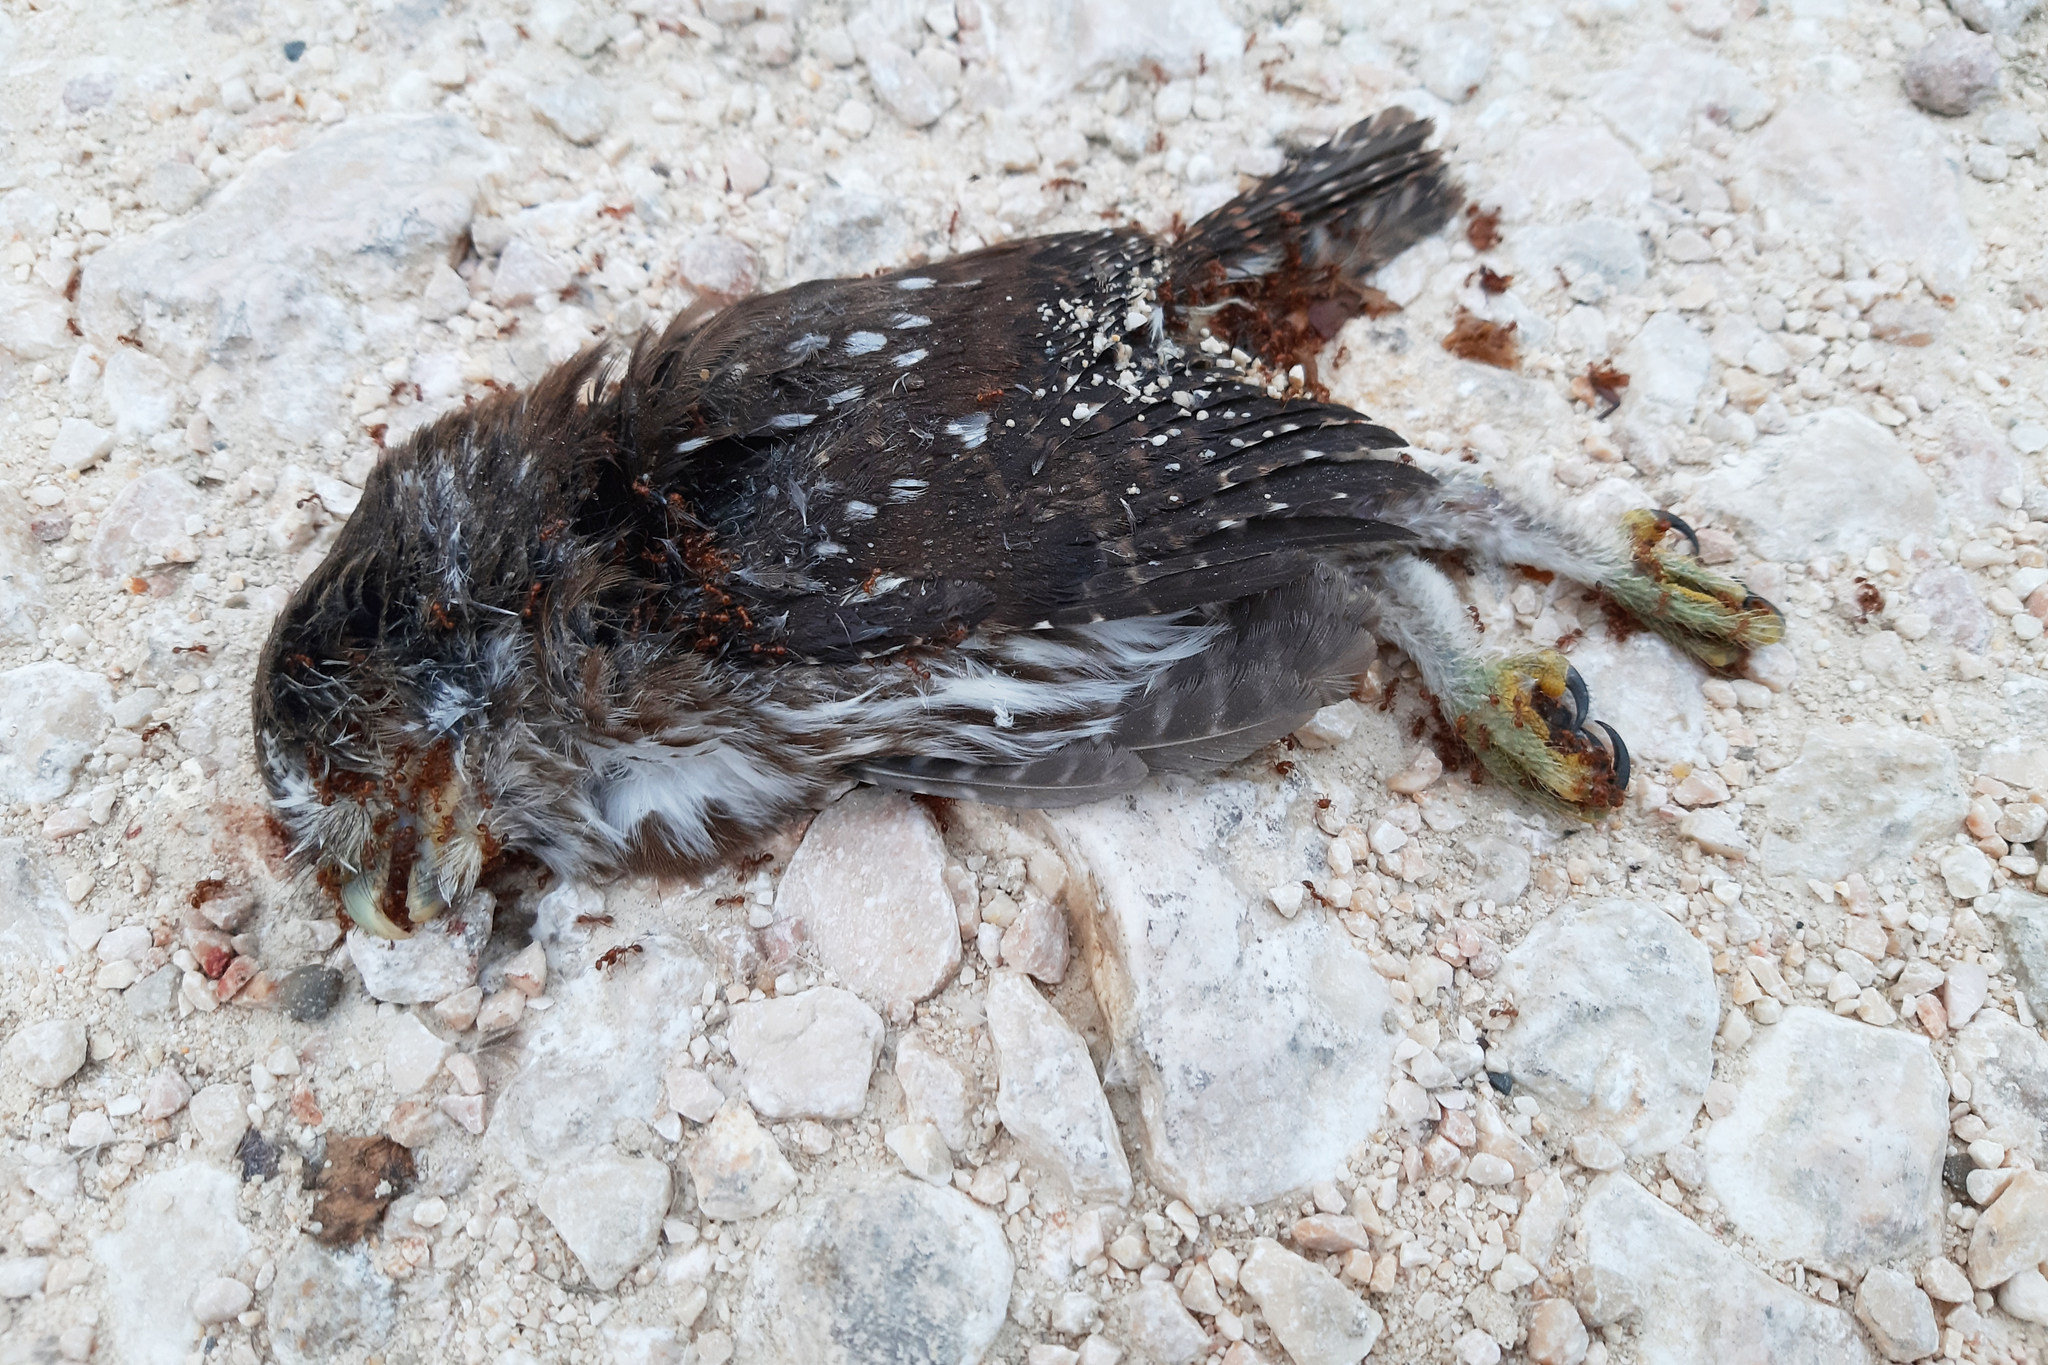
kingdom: Animalia
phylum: Chordata
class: Aves
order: Strigiformes
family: Strigidae
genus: Glaucidium
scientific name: Glaucidium brasilianum
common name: Ferruginous pygmy-owl
